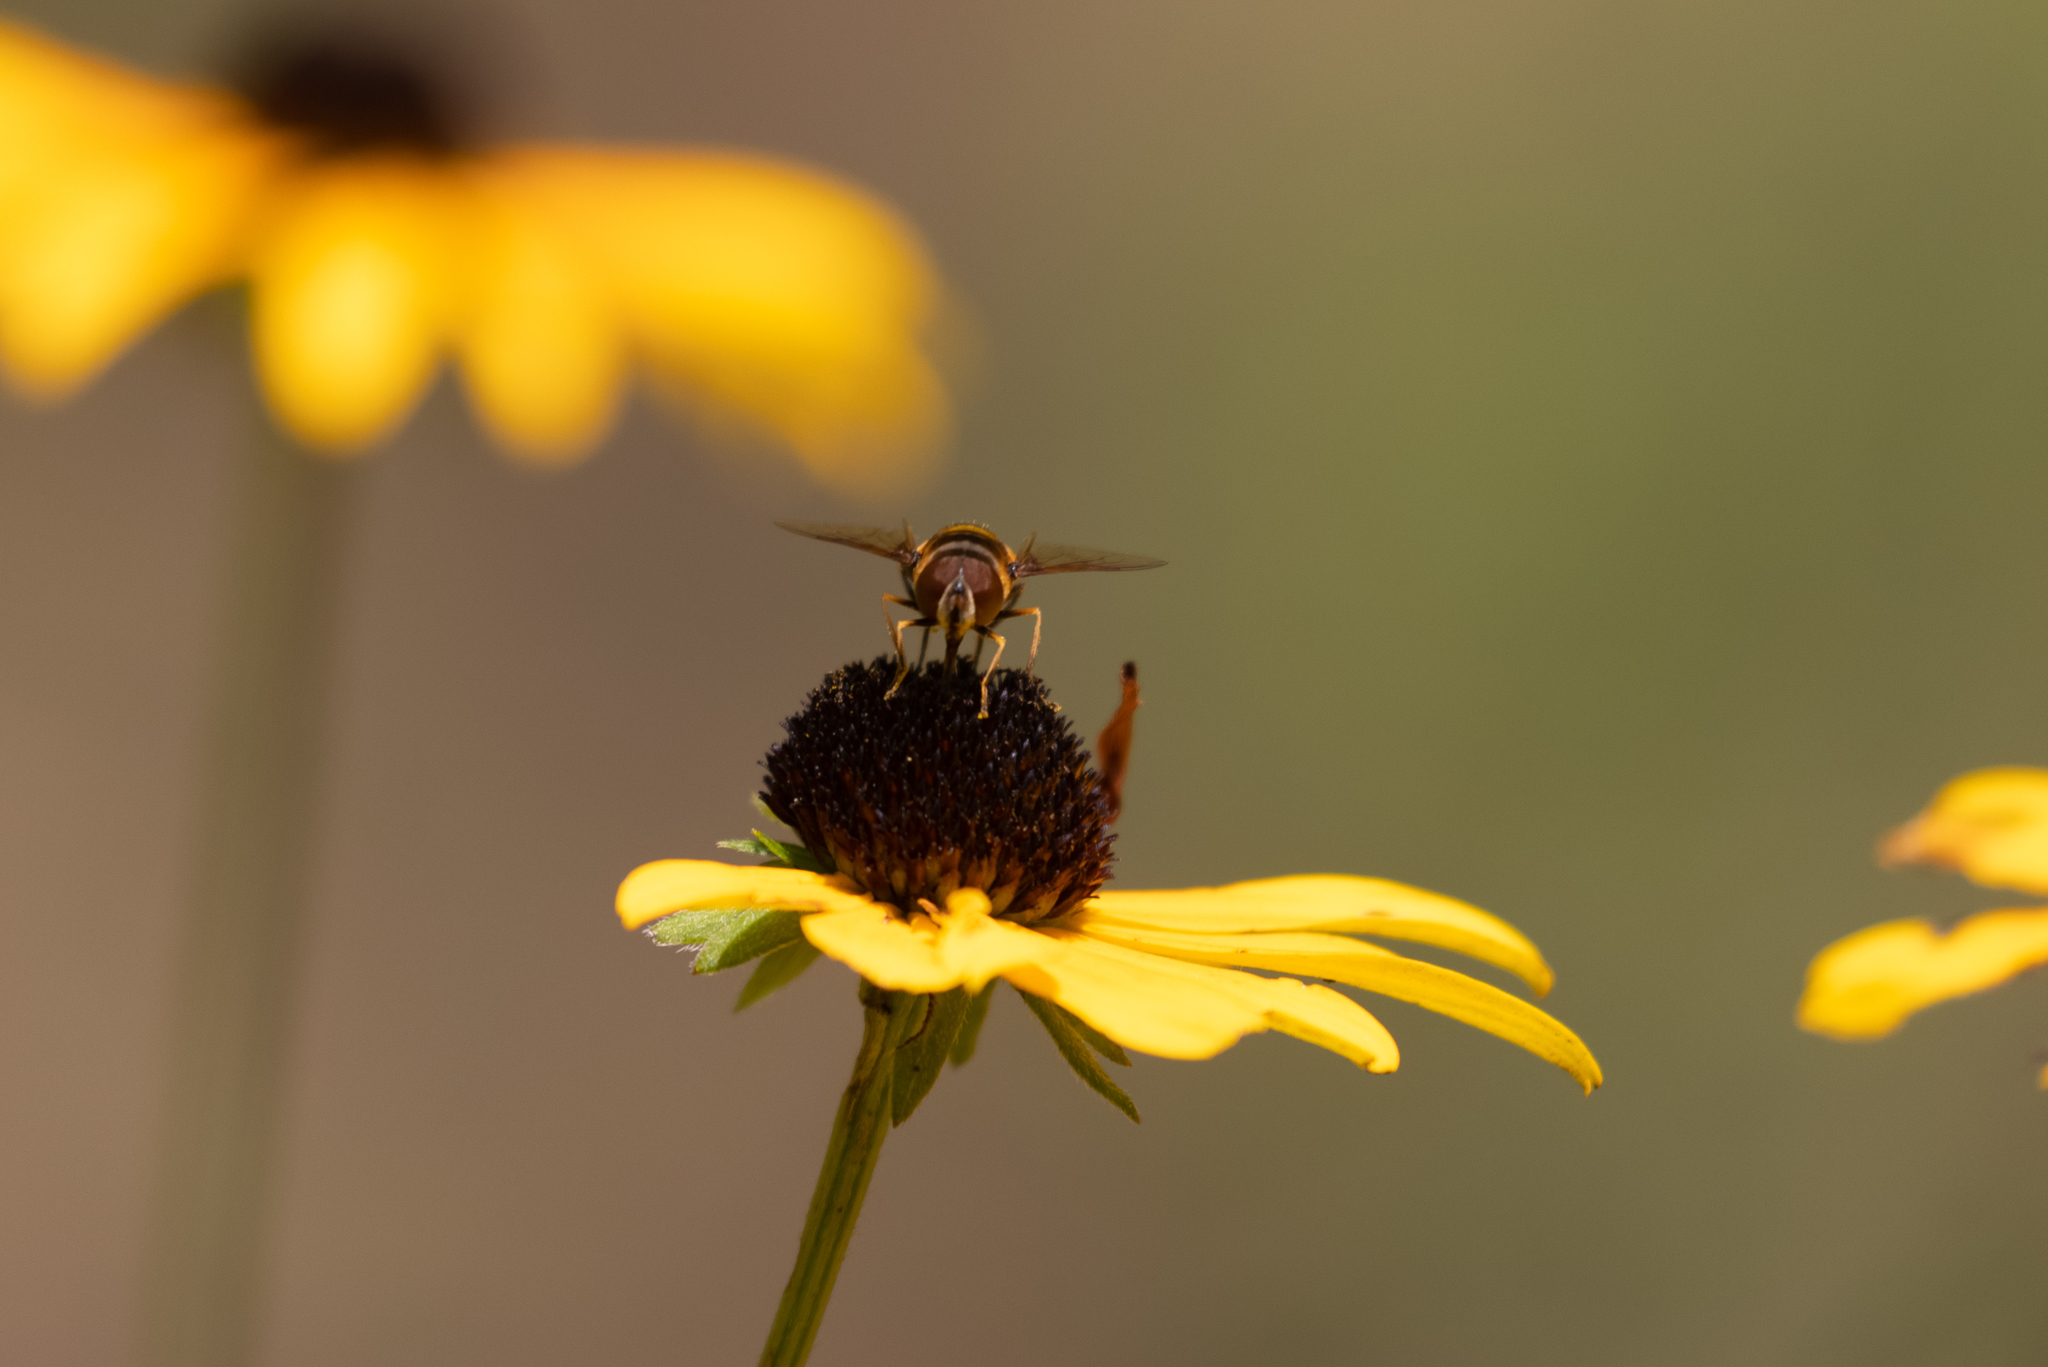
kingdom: Animalia
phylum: Arthropoda
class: Insecta
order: Diptera
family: Syrphidae
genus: Eristalis
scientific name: Eristalis transversa
